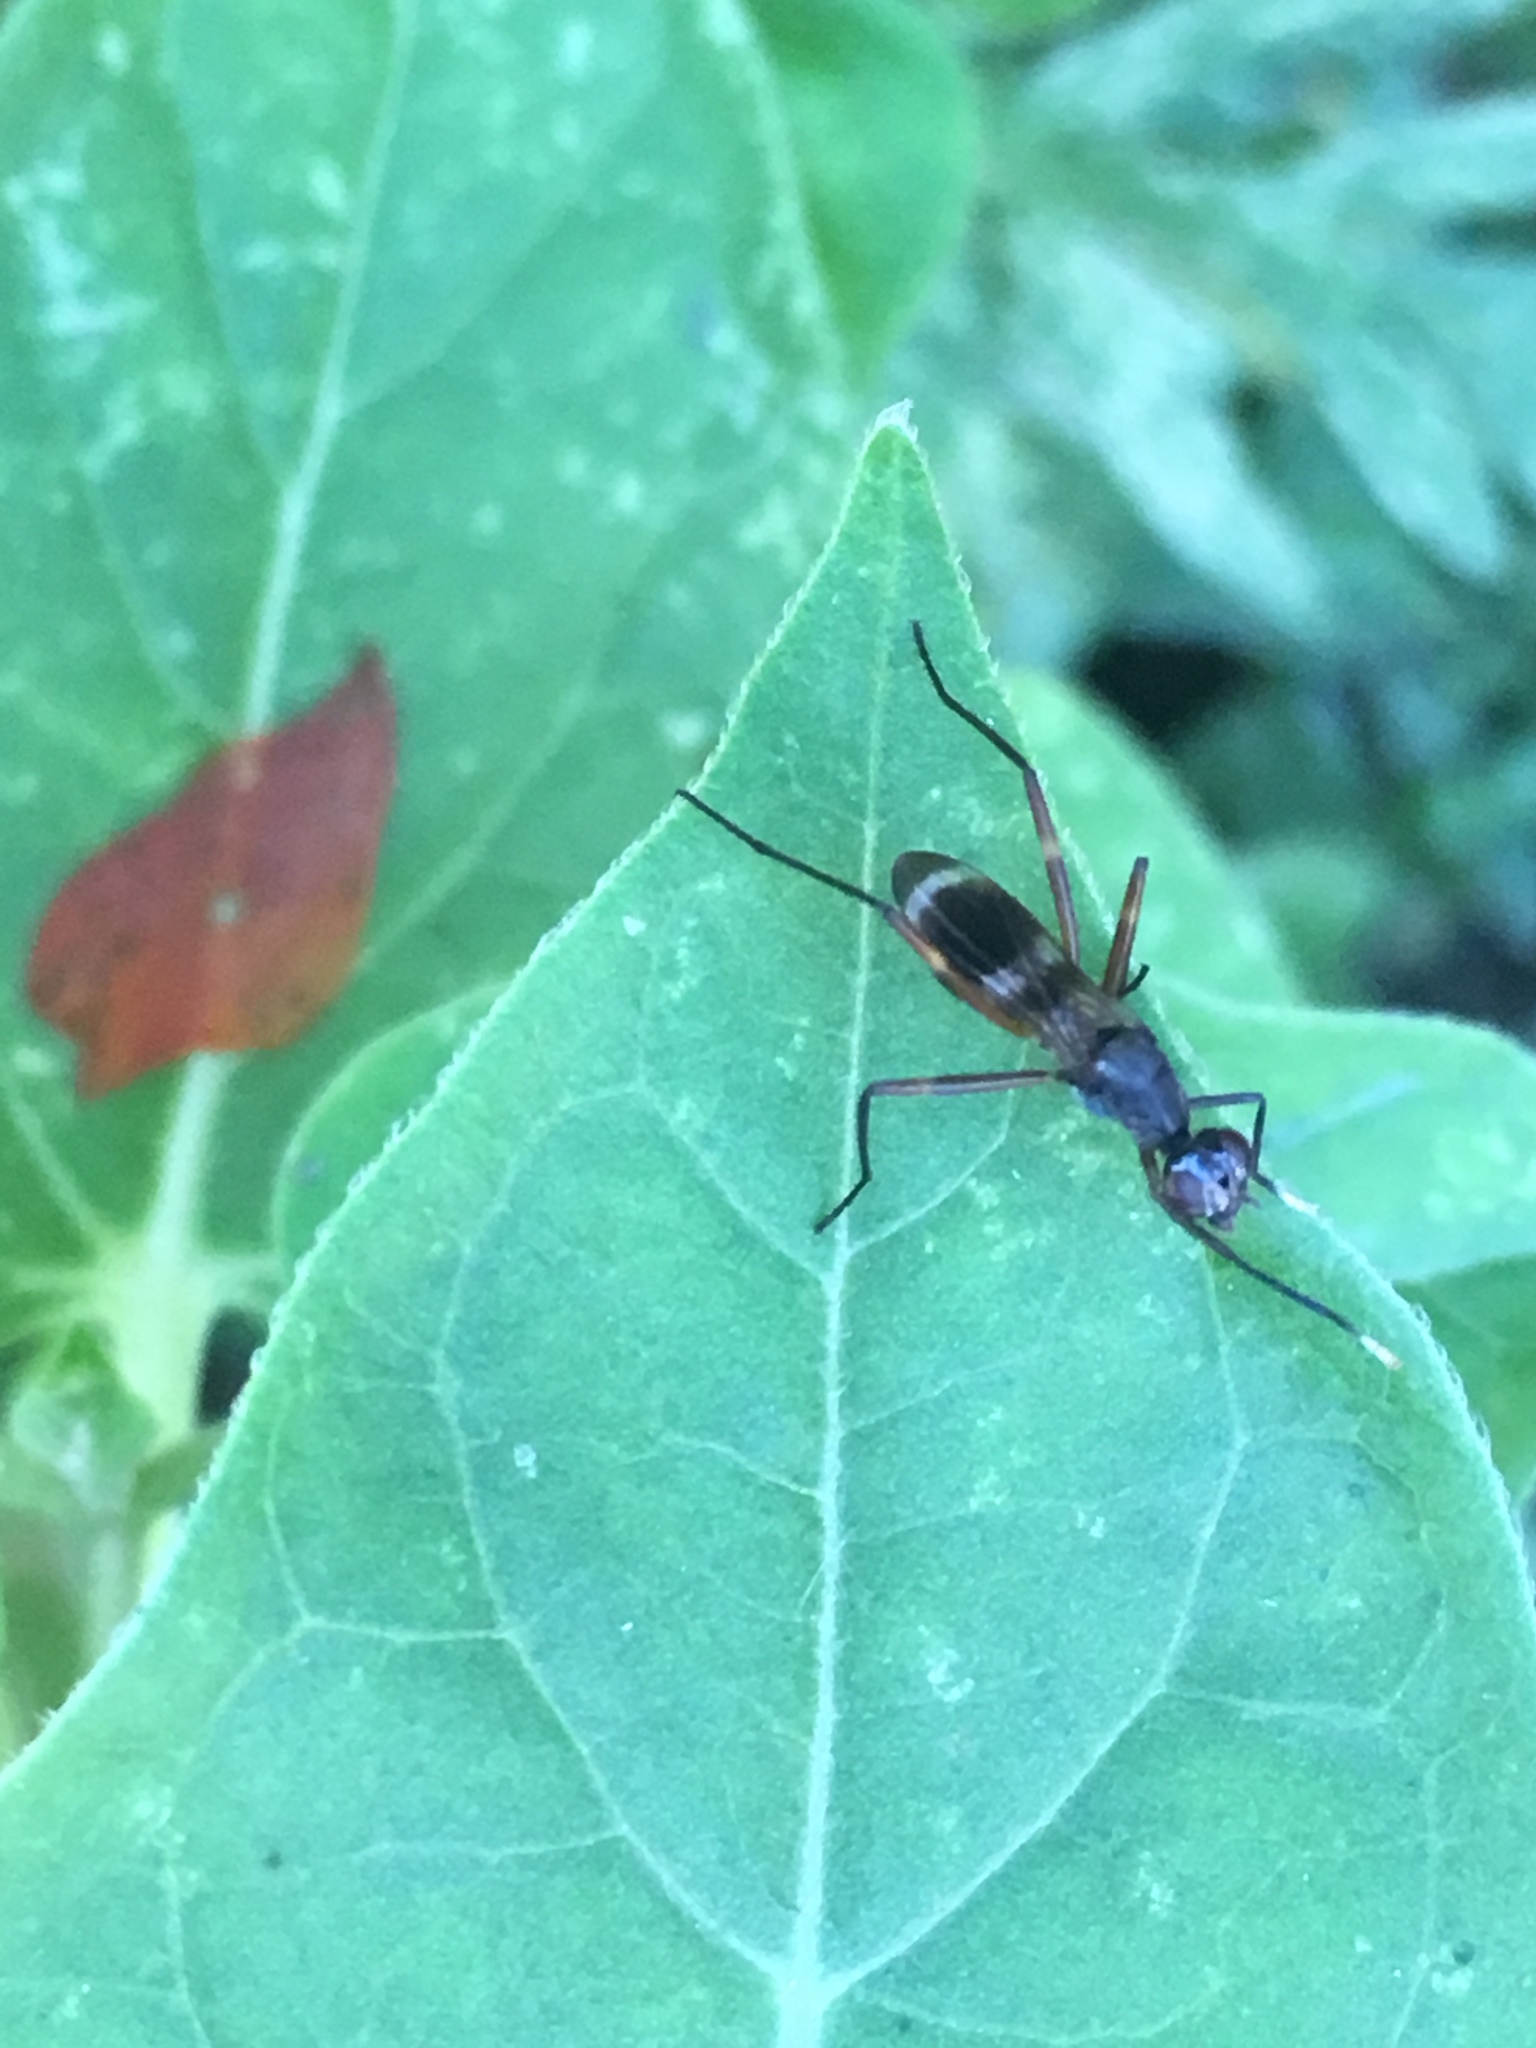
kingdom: Animalia
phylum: Arthropoda
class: Insecta
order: Diptera
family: Micropezidae
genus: Taeniaptera
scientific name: Taeniaptera trivittata
